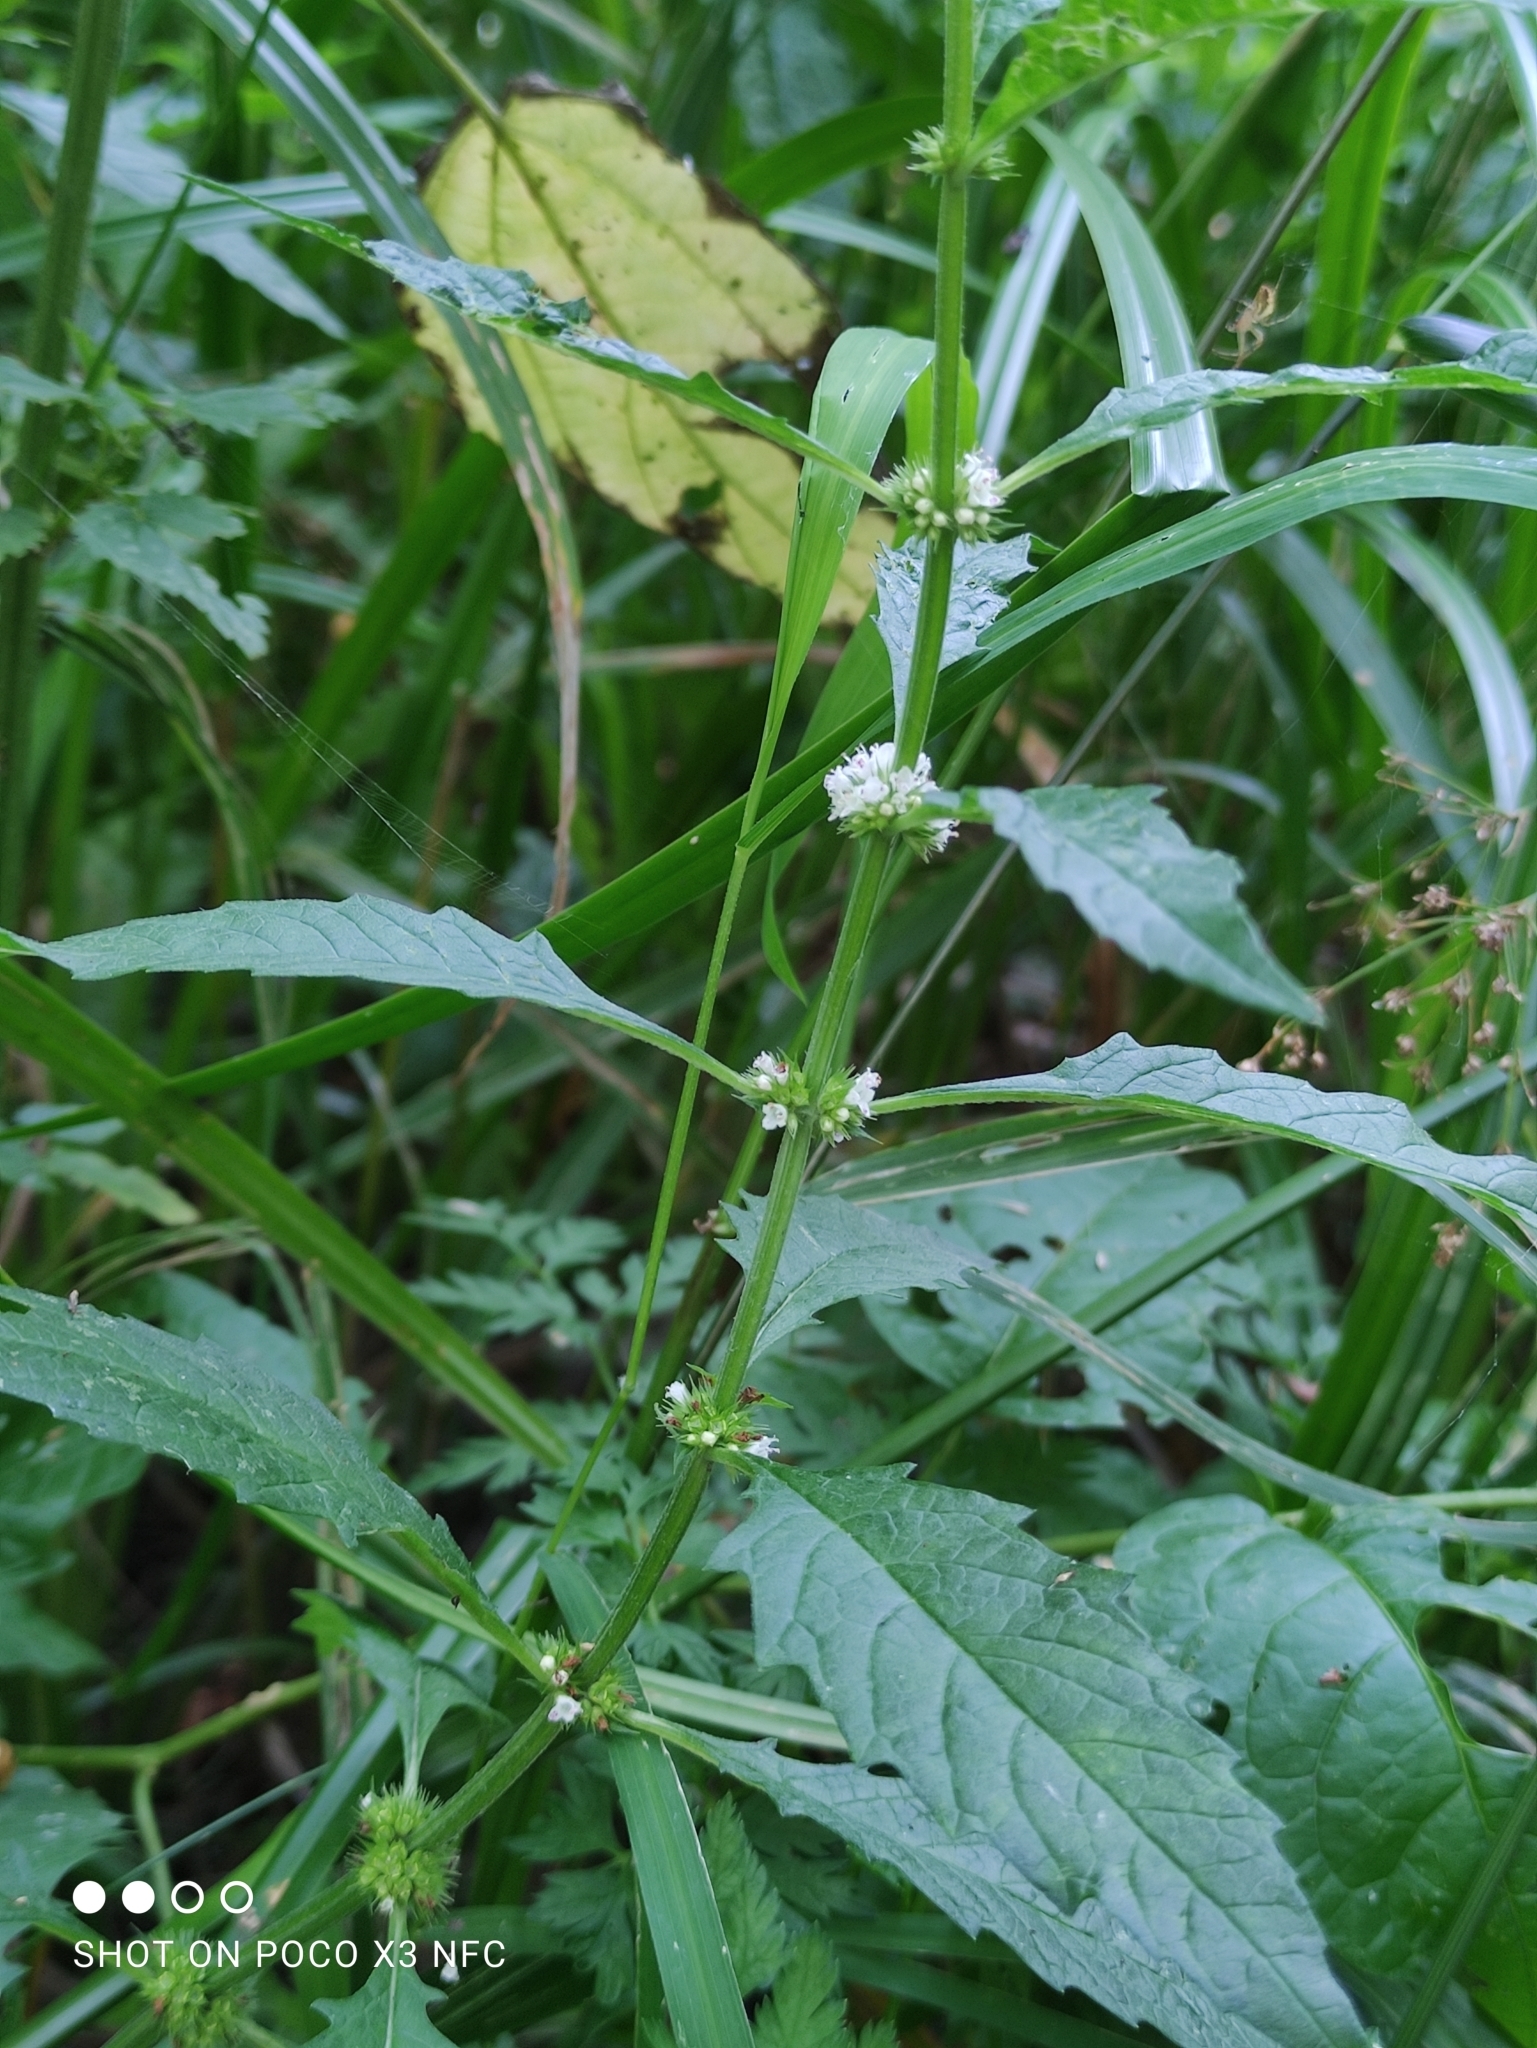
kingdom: Plantae
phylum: Tracheophyta
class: Magnoliopsida
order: Lamiales
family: Lamiaceae
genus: Lycopus
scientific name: Lycopus europaeus
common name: European bugleweed
